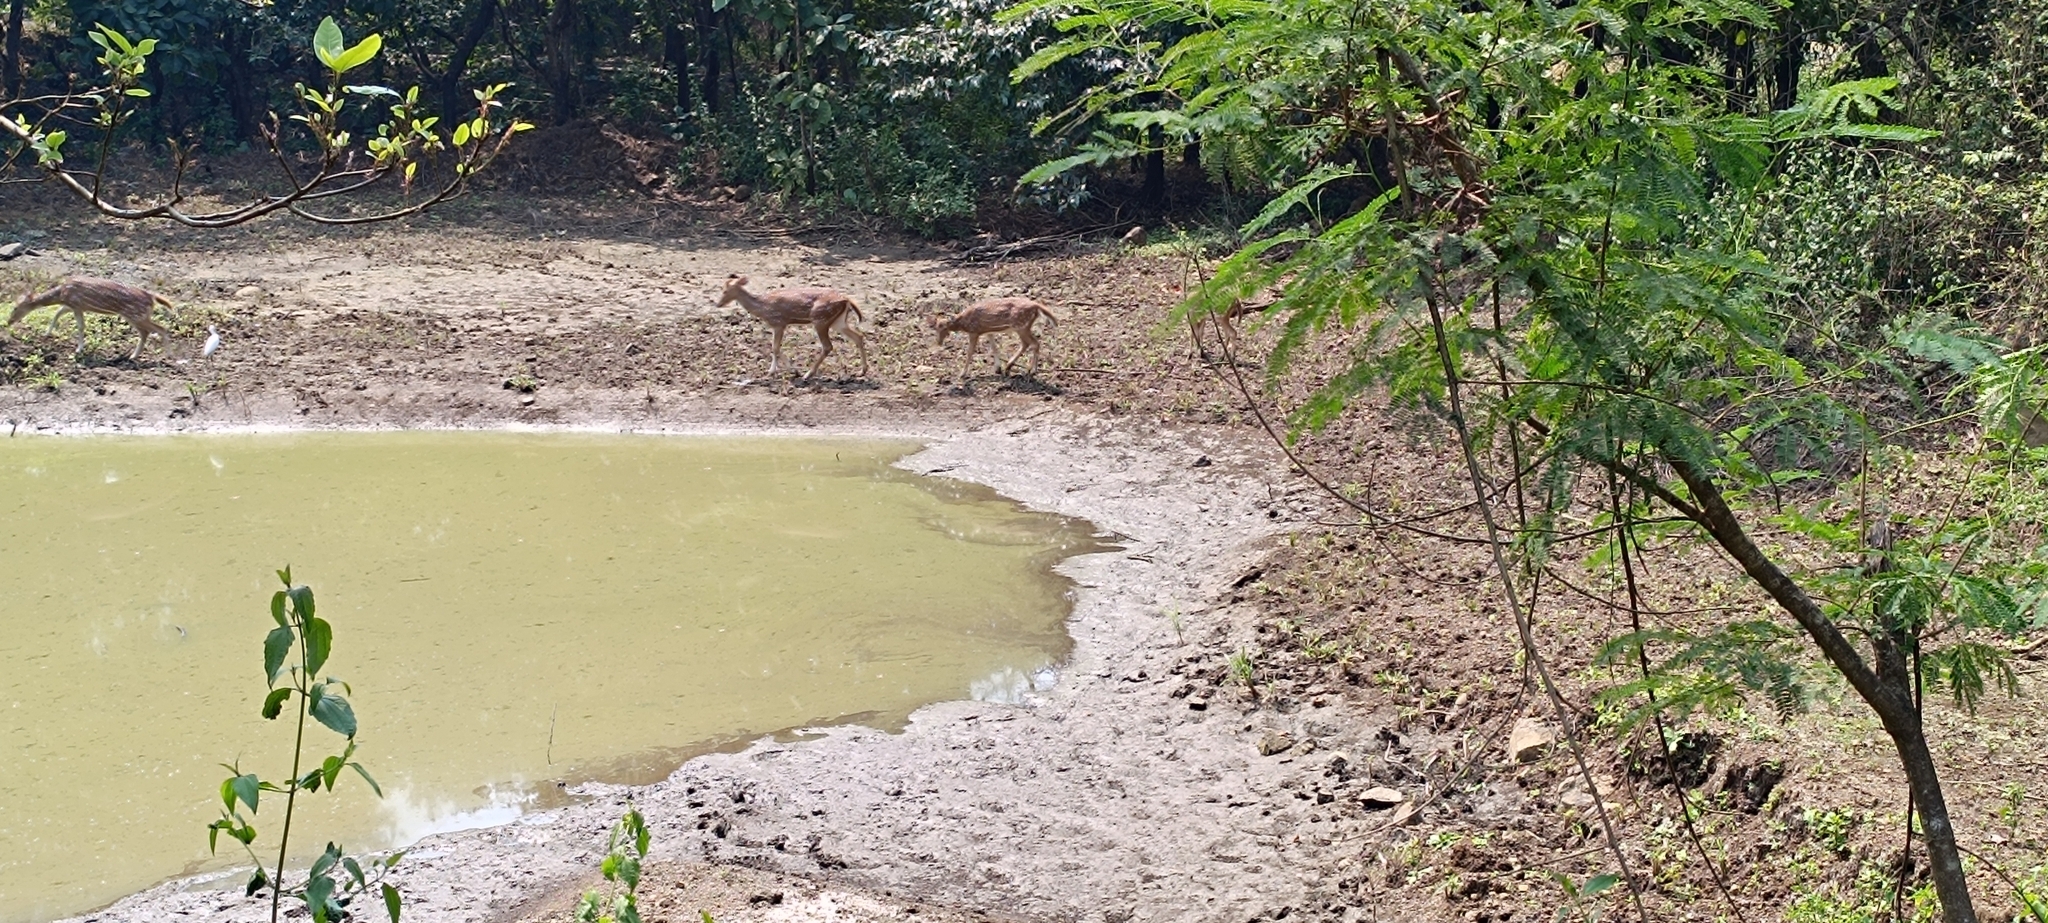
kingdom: Animalia
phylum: Chordata
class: Mammalia
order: Artiodactyla
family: Cervidae
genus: Axis
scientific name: Axis axis
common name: Chital
